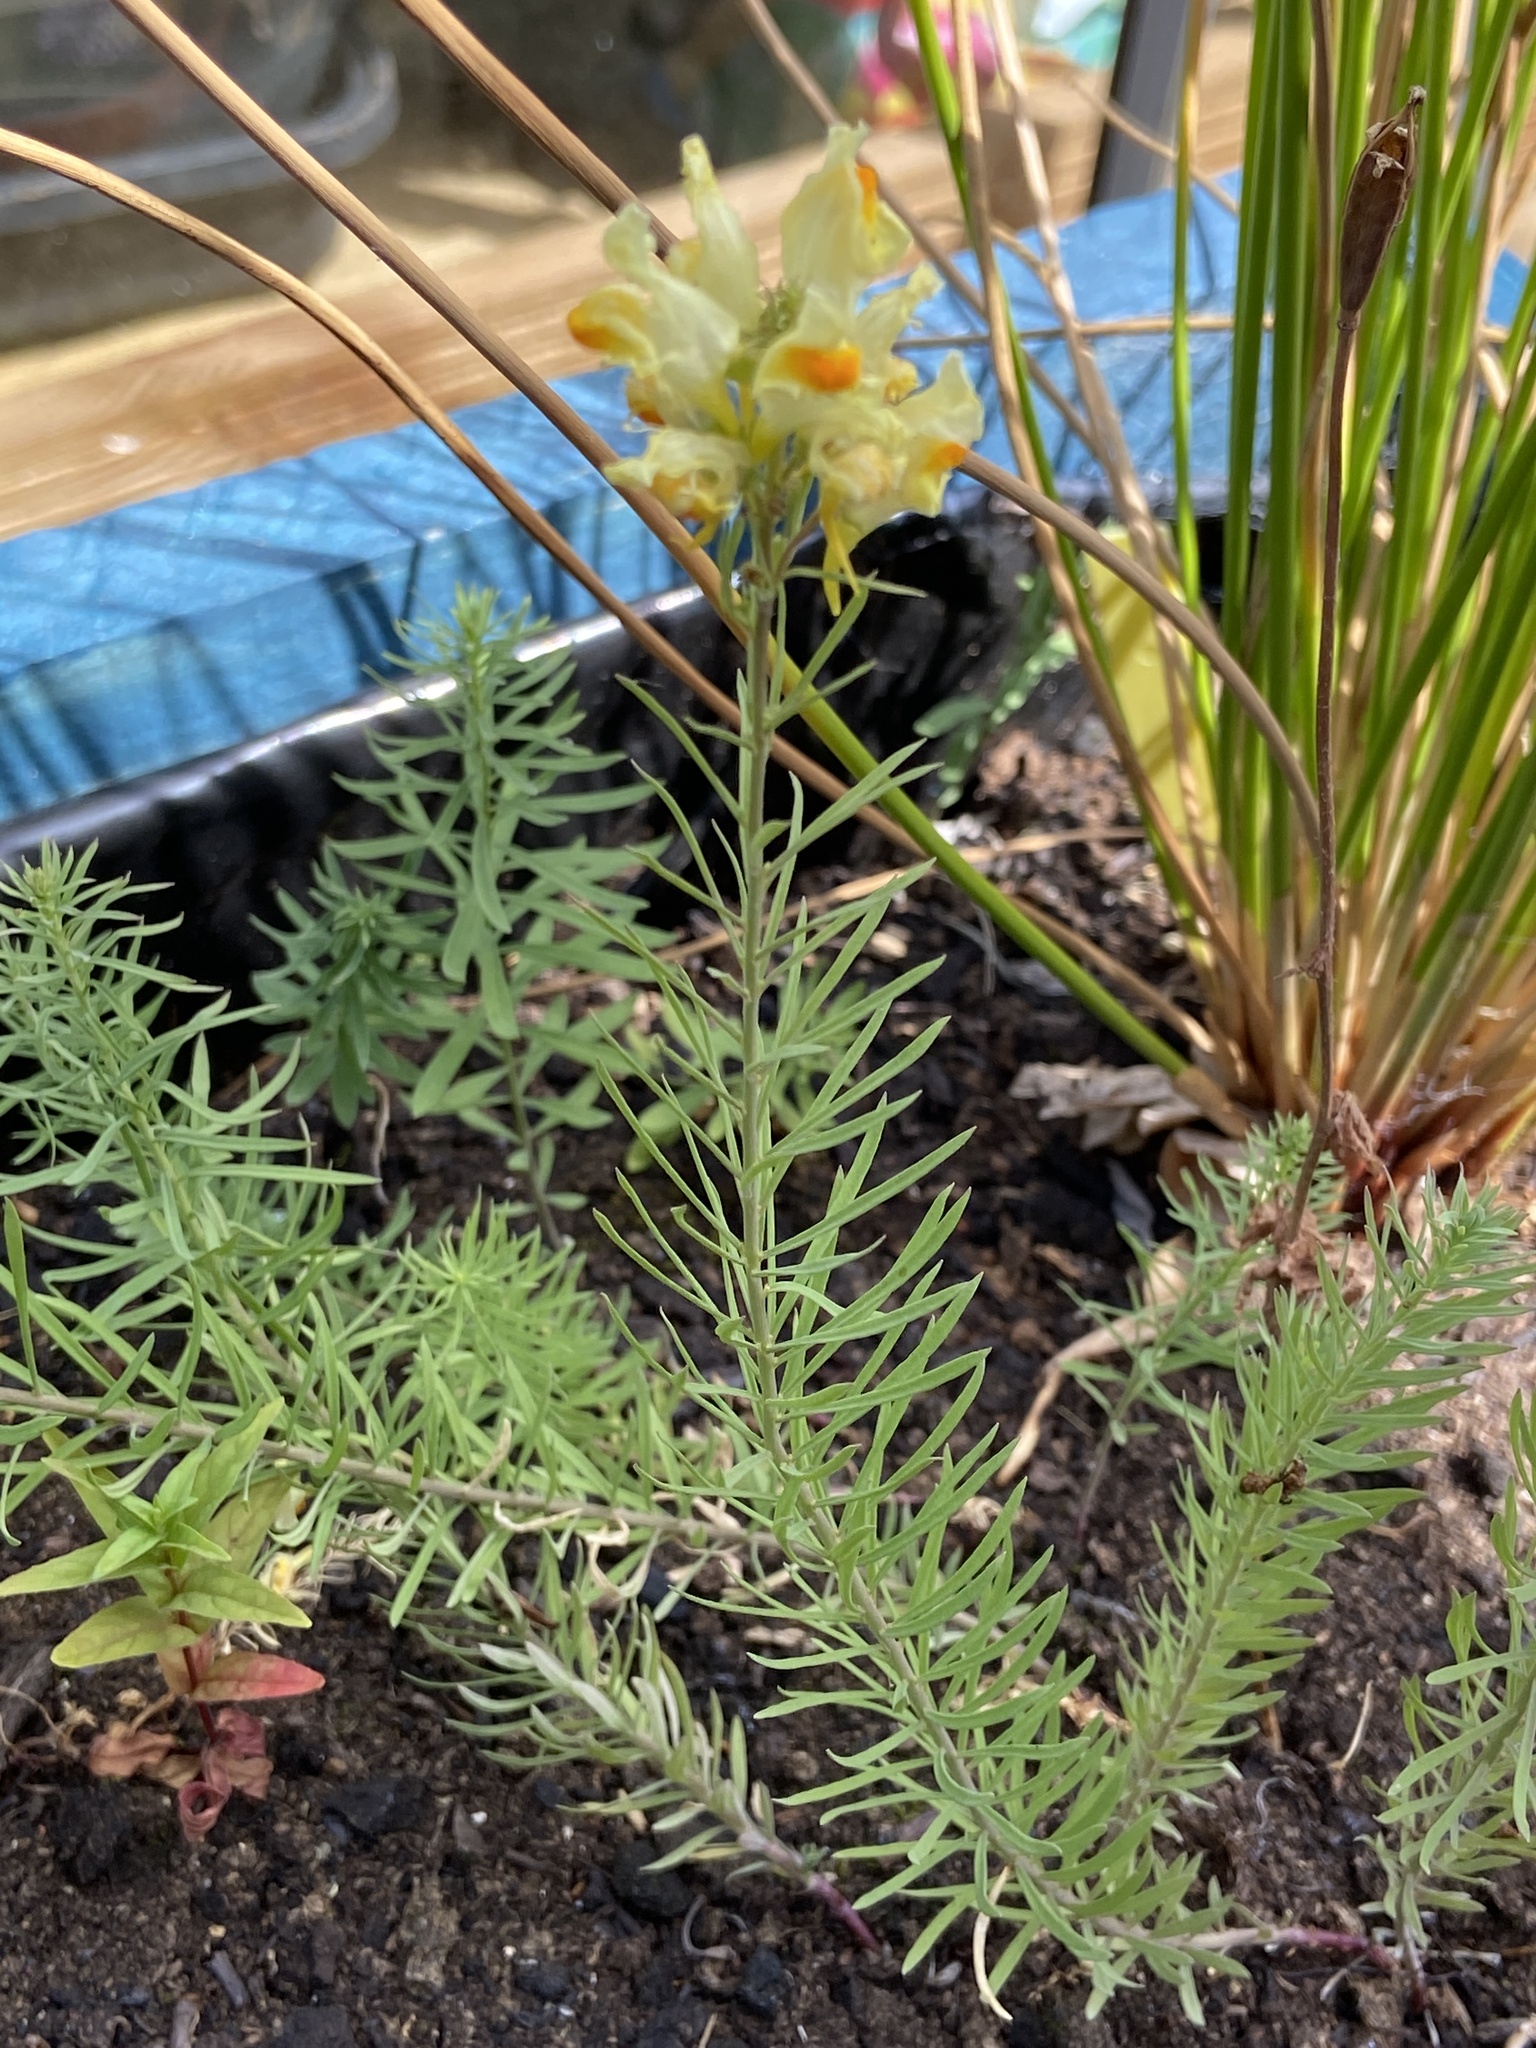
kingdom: Plantae
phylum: Tracheophyta
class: Magnoliopsida
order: Lamiales
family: Plantaginaceae
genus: Linaria
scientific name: Linaria vulgaris
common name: Butter and eggs
